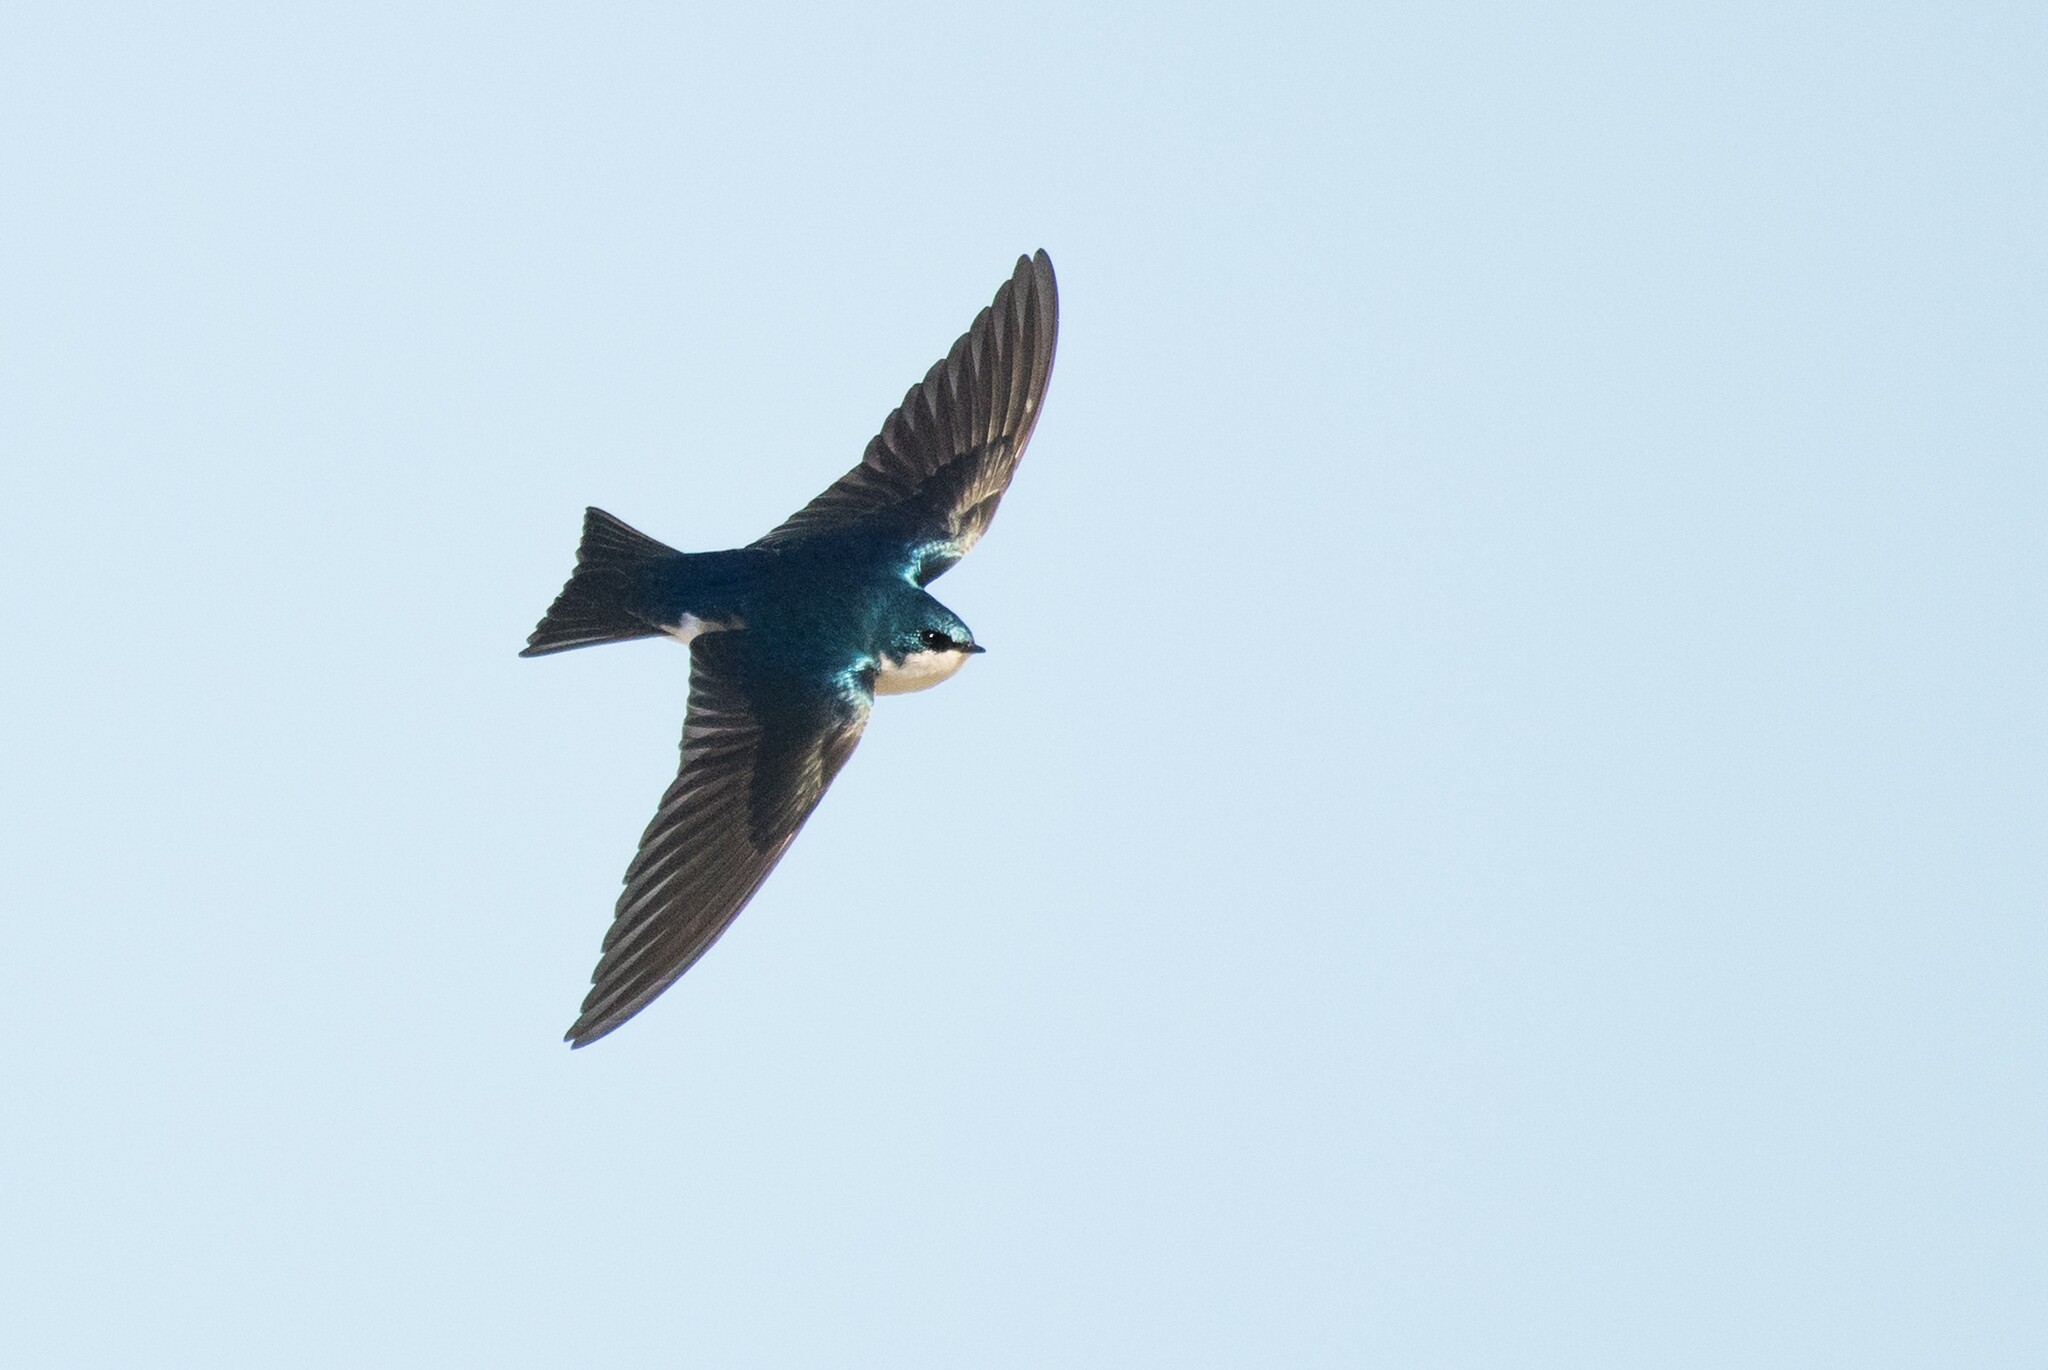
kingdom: Animalia
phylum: Chordata
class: Aves
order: Passeriformes
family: Hirundinidae
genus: Tachycineta
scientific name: Tachycineta bicolor
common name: Tree swallow
